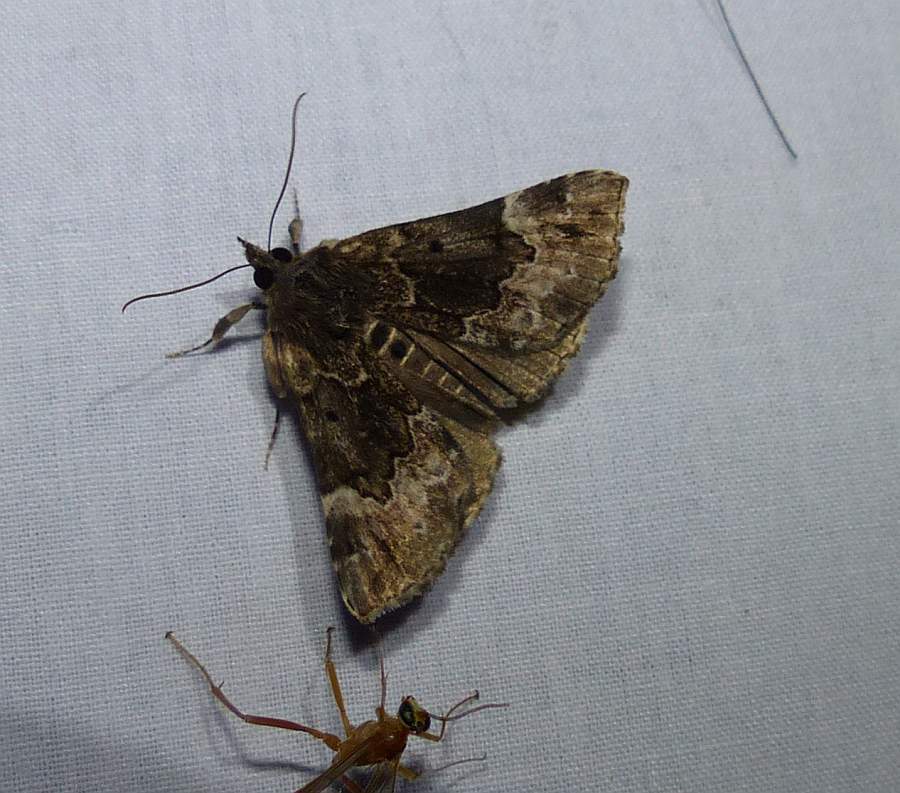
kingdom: Animalia
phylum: Arthropoda
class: Insecta
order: Lepidoptera
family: Erebidae
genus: Hypena
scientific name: Hypena palparia
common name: Mottled bomolocha moth
